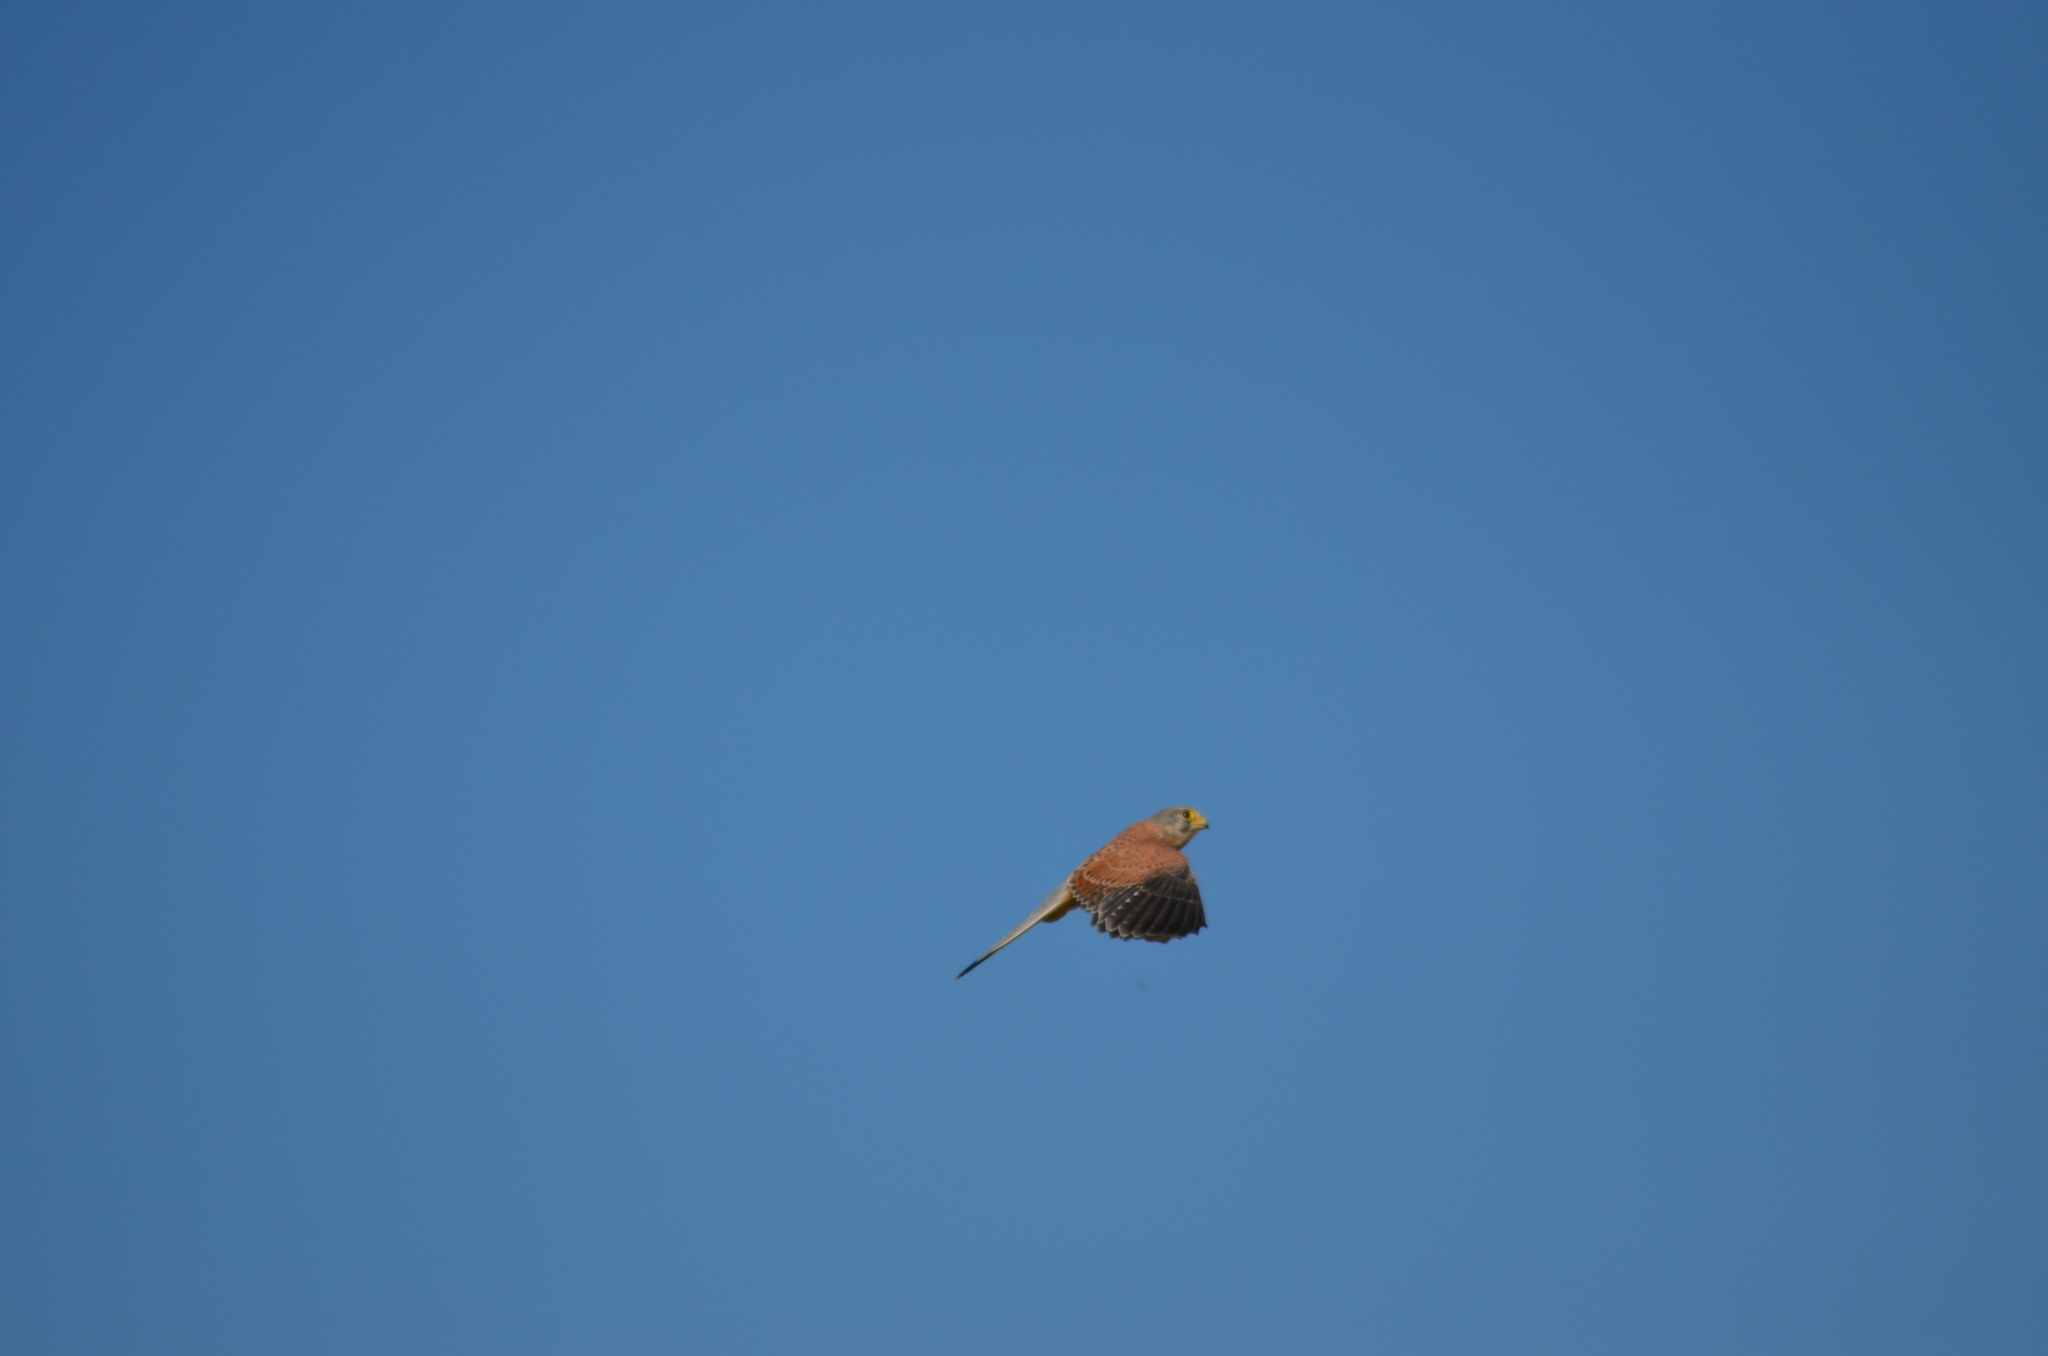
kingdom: Animalia
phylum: Chordata
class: Aves
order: Falconiformes
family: Falconidae
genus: Falco
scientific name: Falco tinnunculus
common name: Common kestrel
